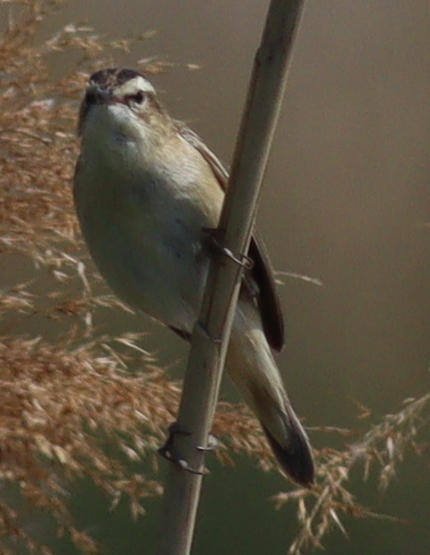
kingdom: Animalia
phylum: Chordata
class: Aves
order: Passeriformes
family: Acrocephalidae
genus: Acrocephalus
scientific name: Acrocephalus schoenobaenus
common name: Sedge warbler
